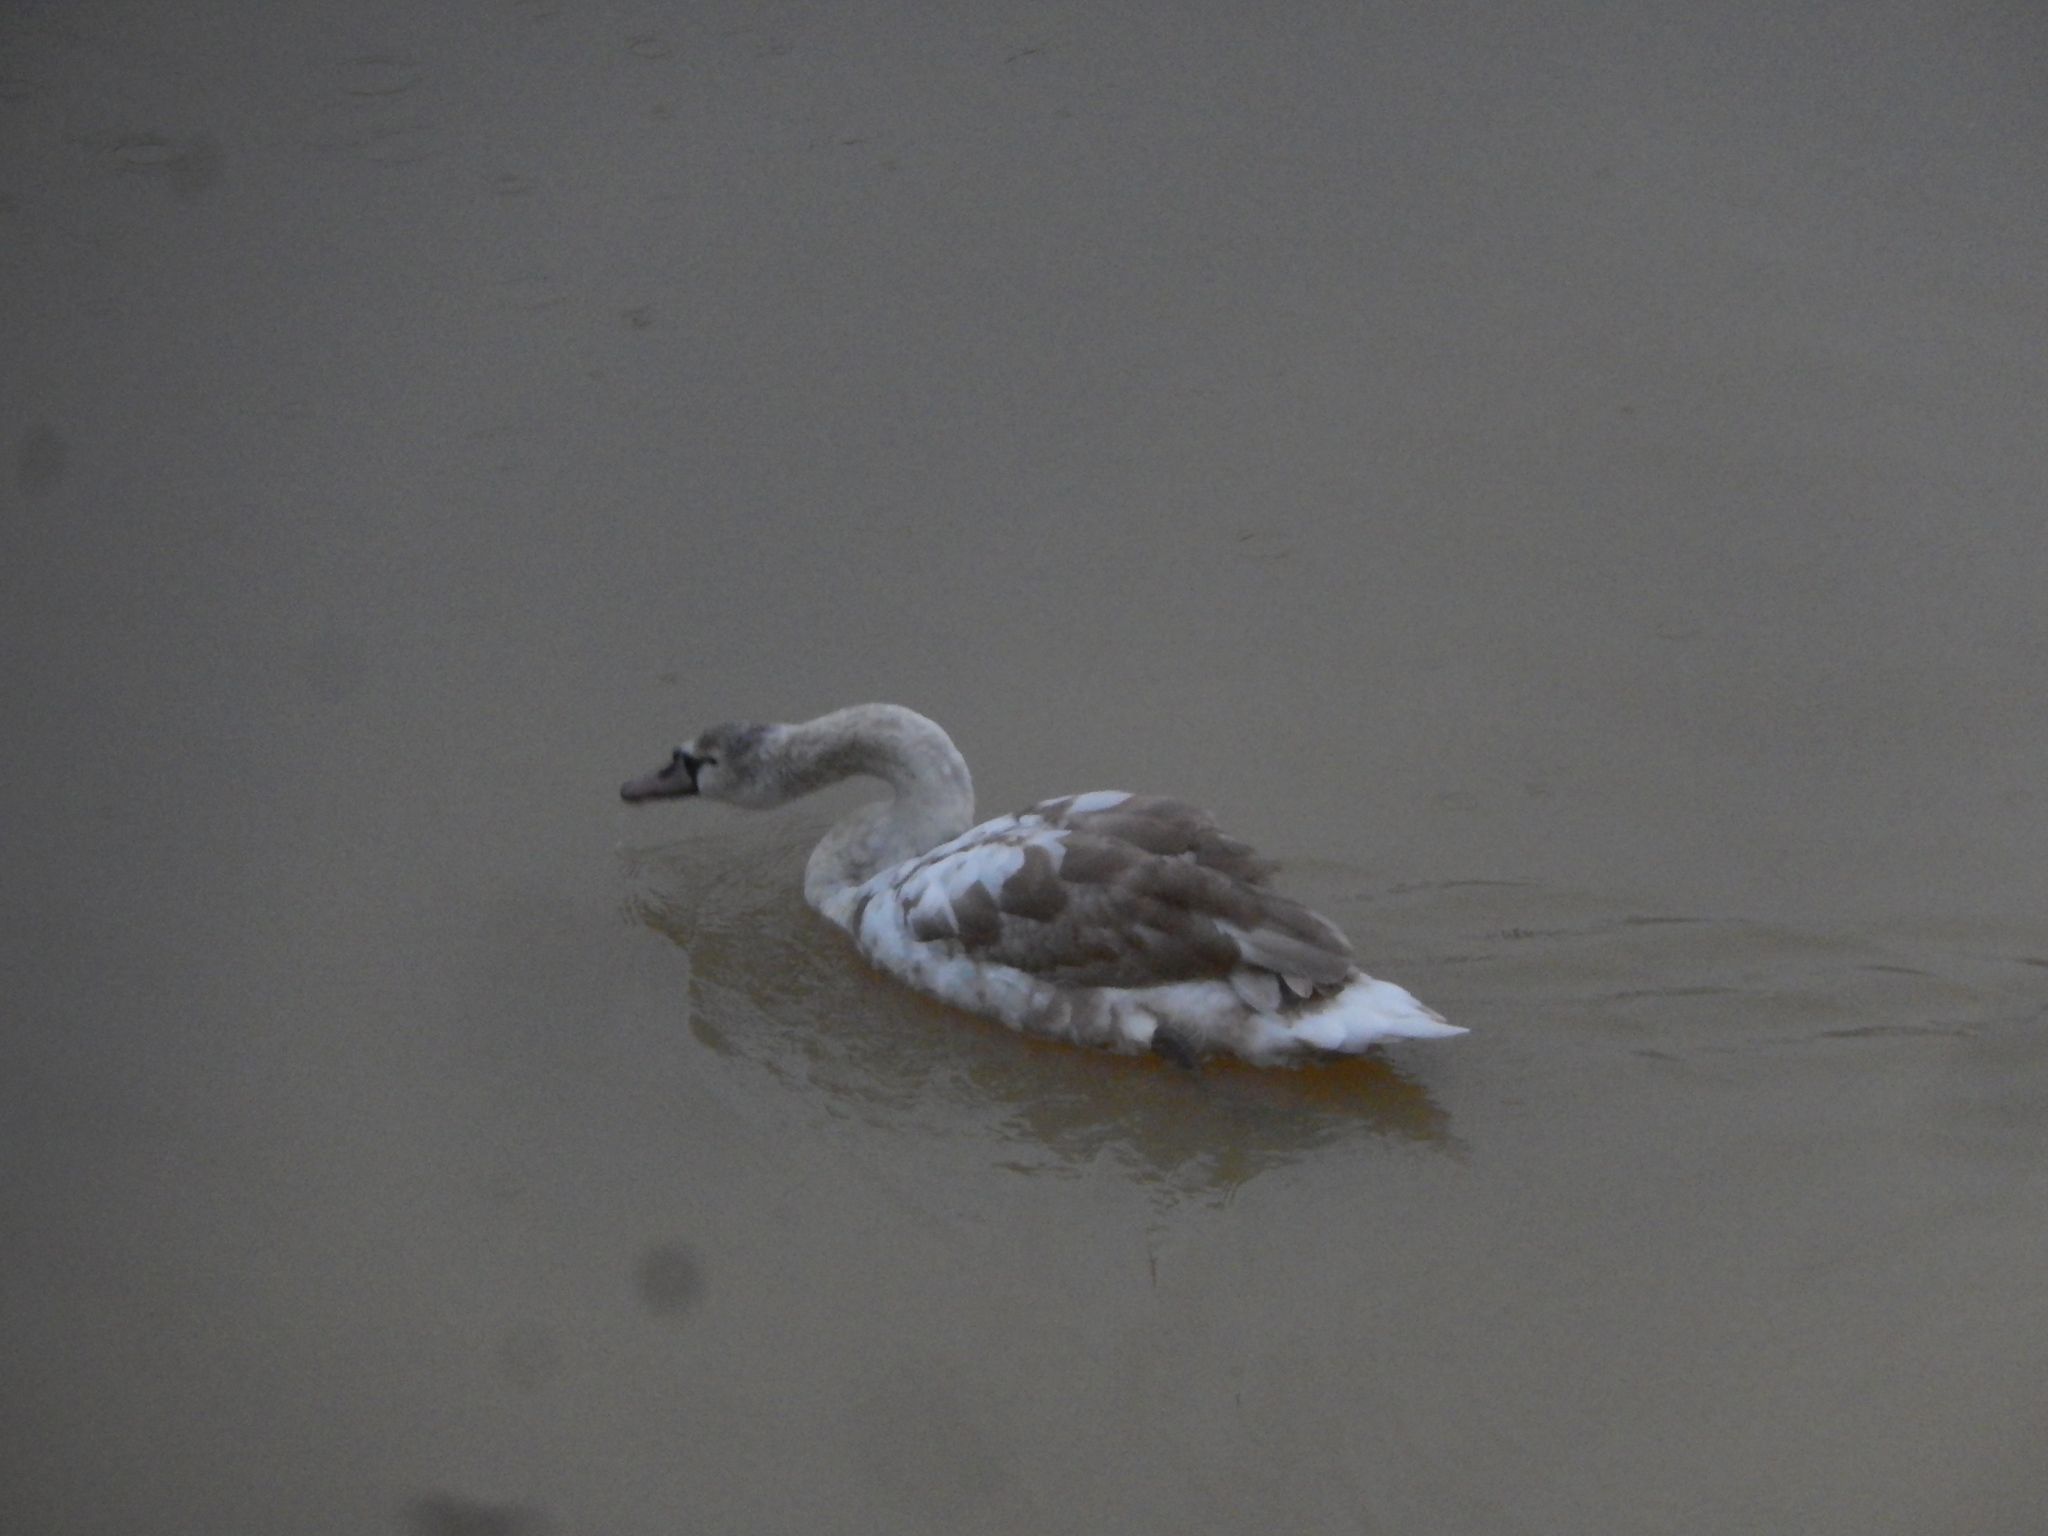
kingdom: Animalia
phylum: Chordata
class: Aves
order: Anseriformes
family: Anatidae
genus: Cygnus
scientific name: Cygnus olor
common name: Mute swan
